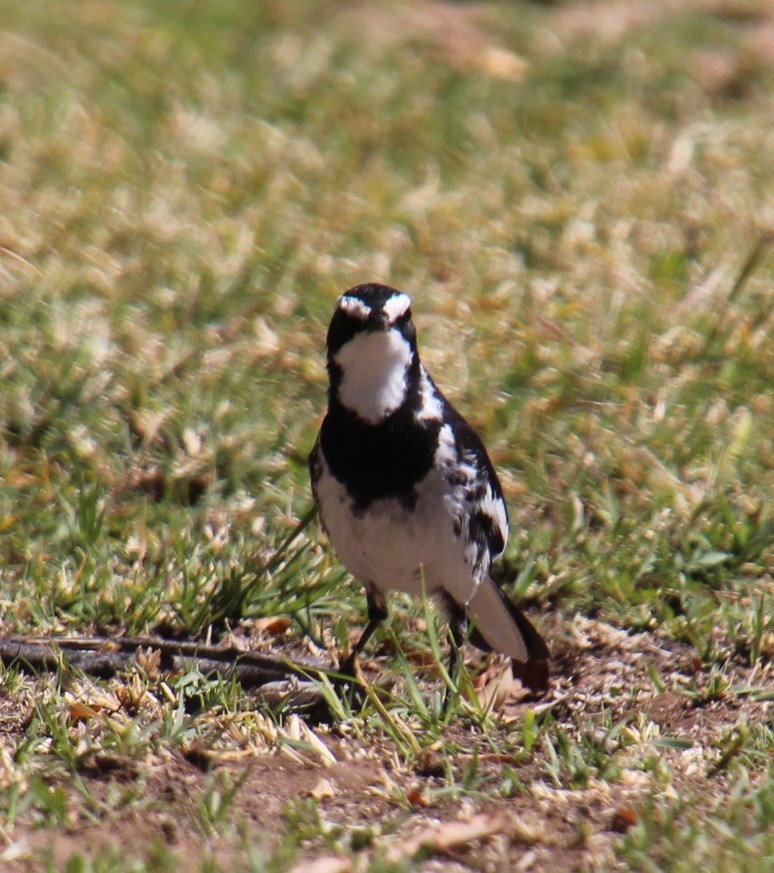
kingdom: Animalia
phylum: Chordata
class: Aves
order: Passeriformes
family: Motacillidae
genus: Motacilla
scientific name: Motacilla aguimp
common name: African pied wagtail
